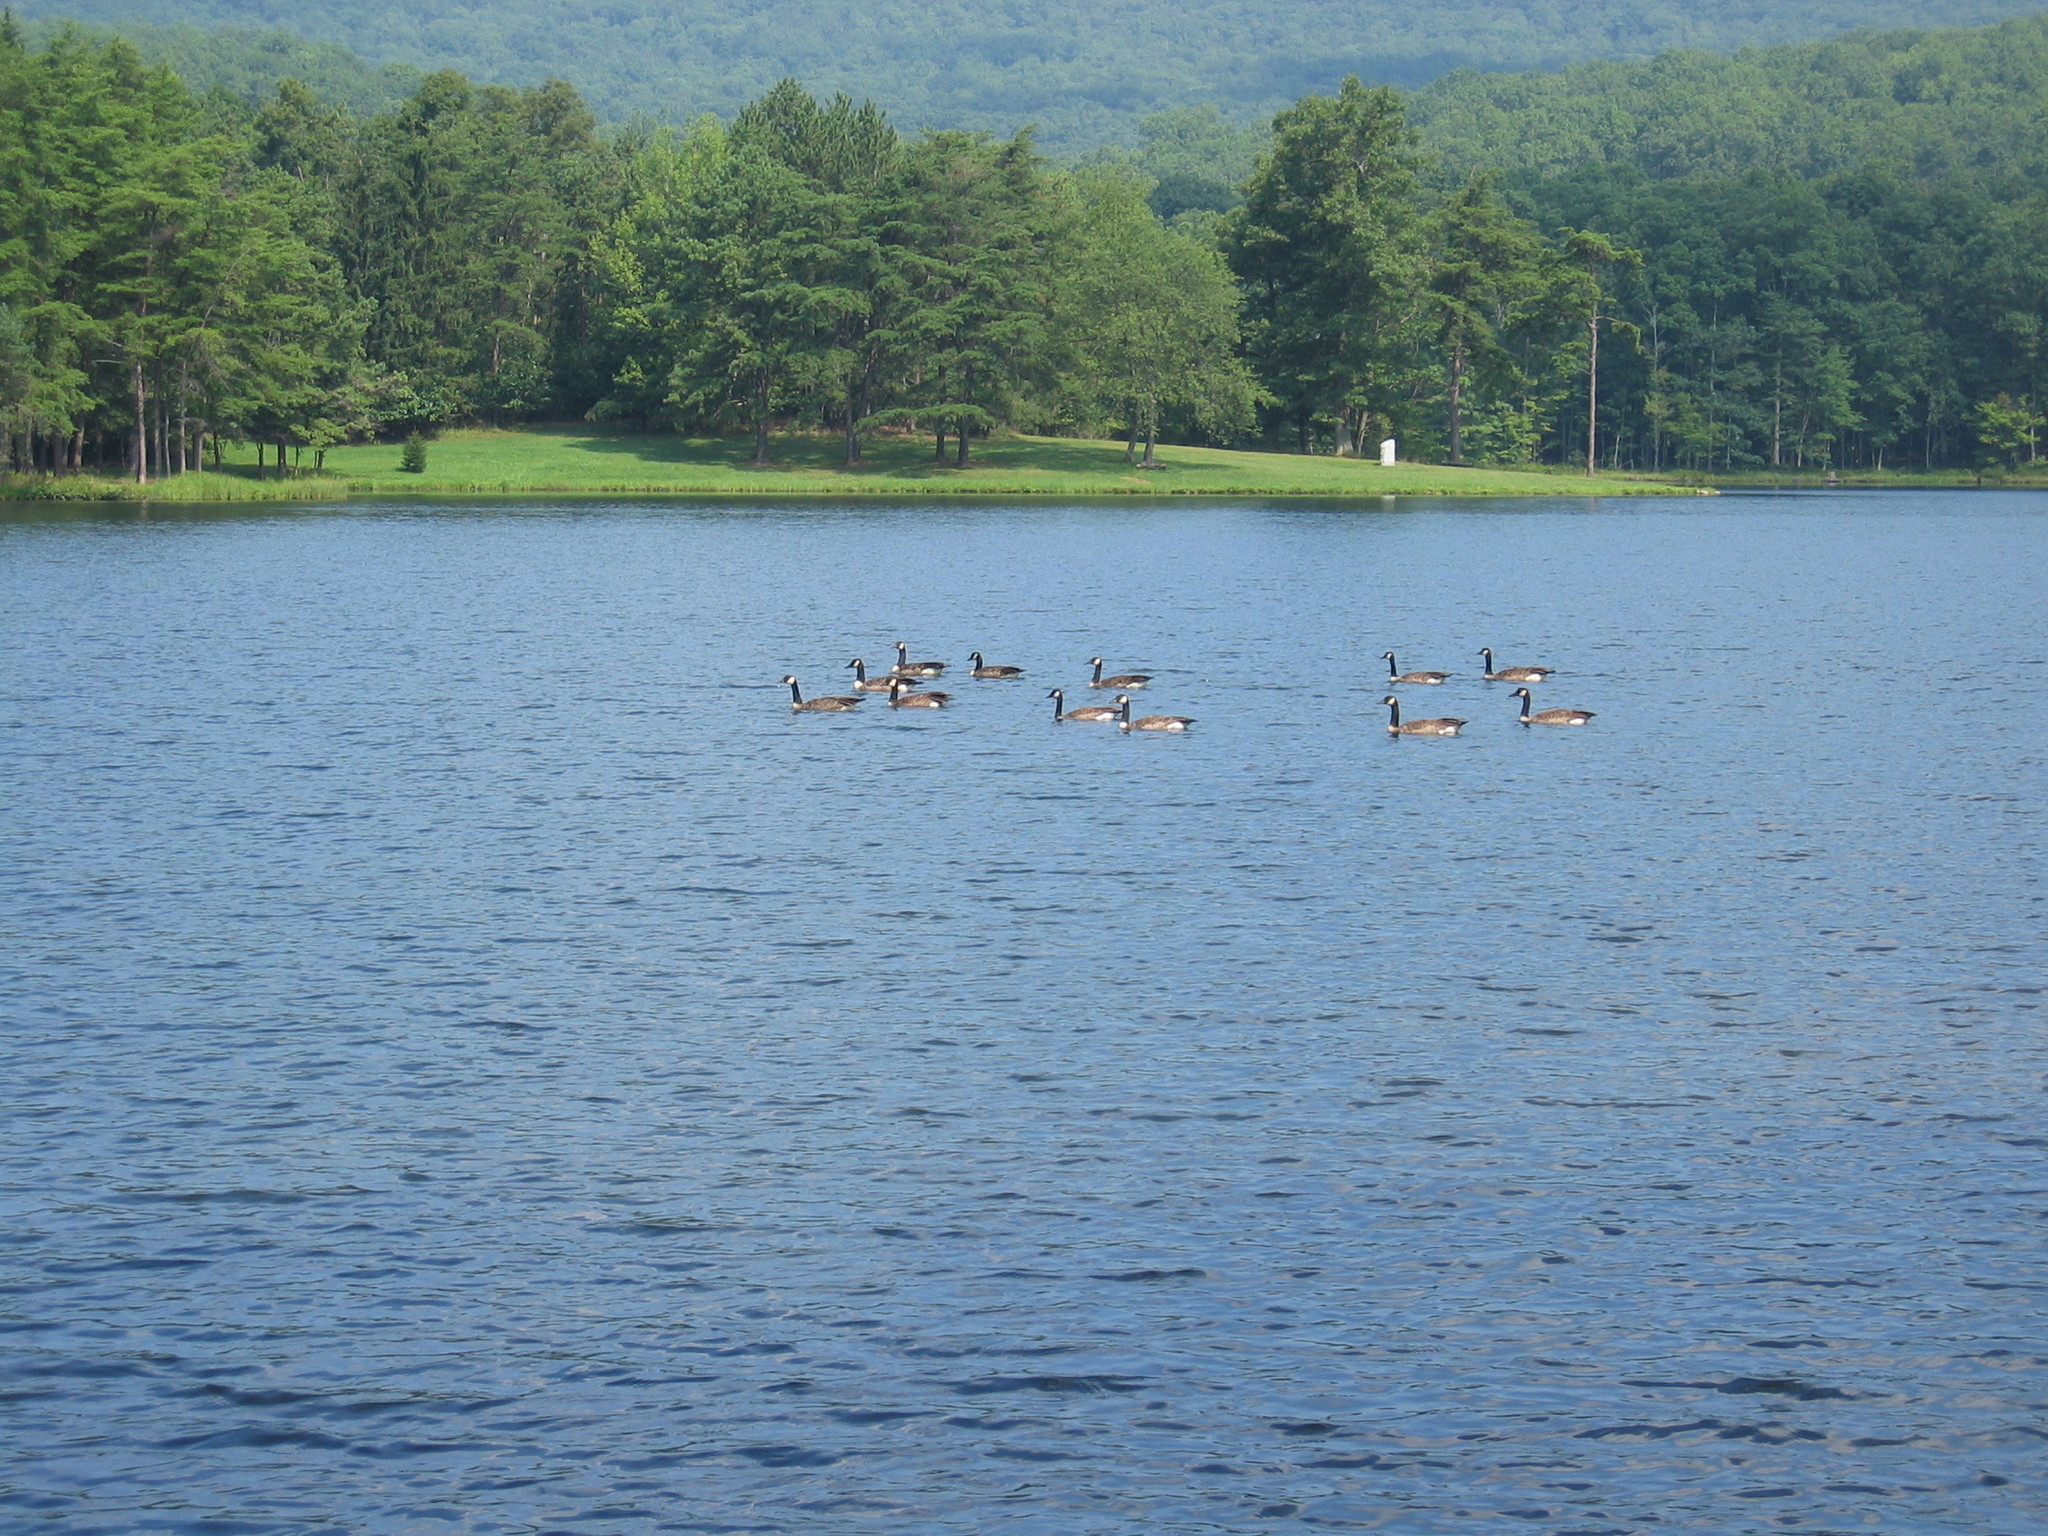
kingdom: Animalia
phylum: Chordata
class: Aves
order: Anseriformes
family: Anatidae
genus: Branta
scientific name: Branta canadensis
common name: Canada goose
